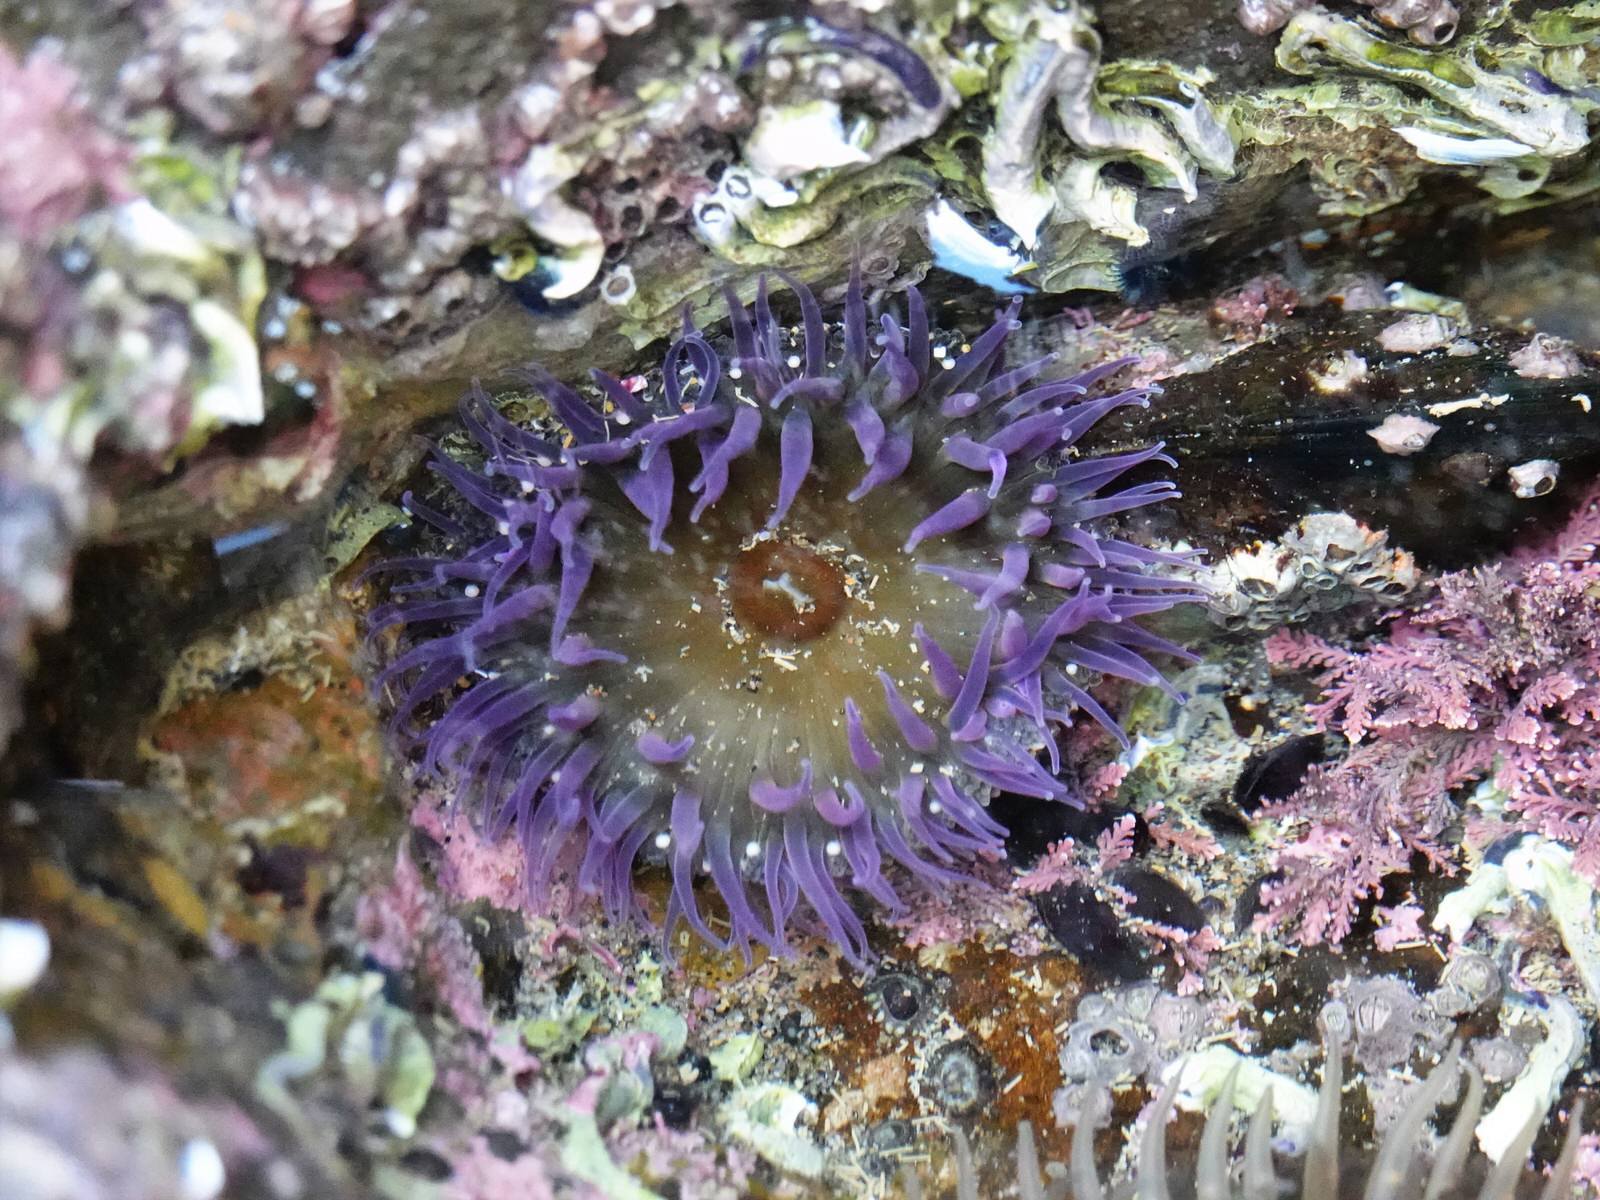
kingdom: Animalia
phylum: Cnidaria
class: Anthozoa
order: Actiniaria
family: Actiniidae
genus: Oulactis
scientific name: Oulactis magna
